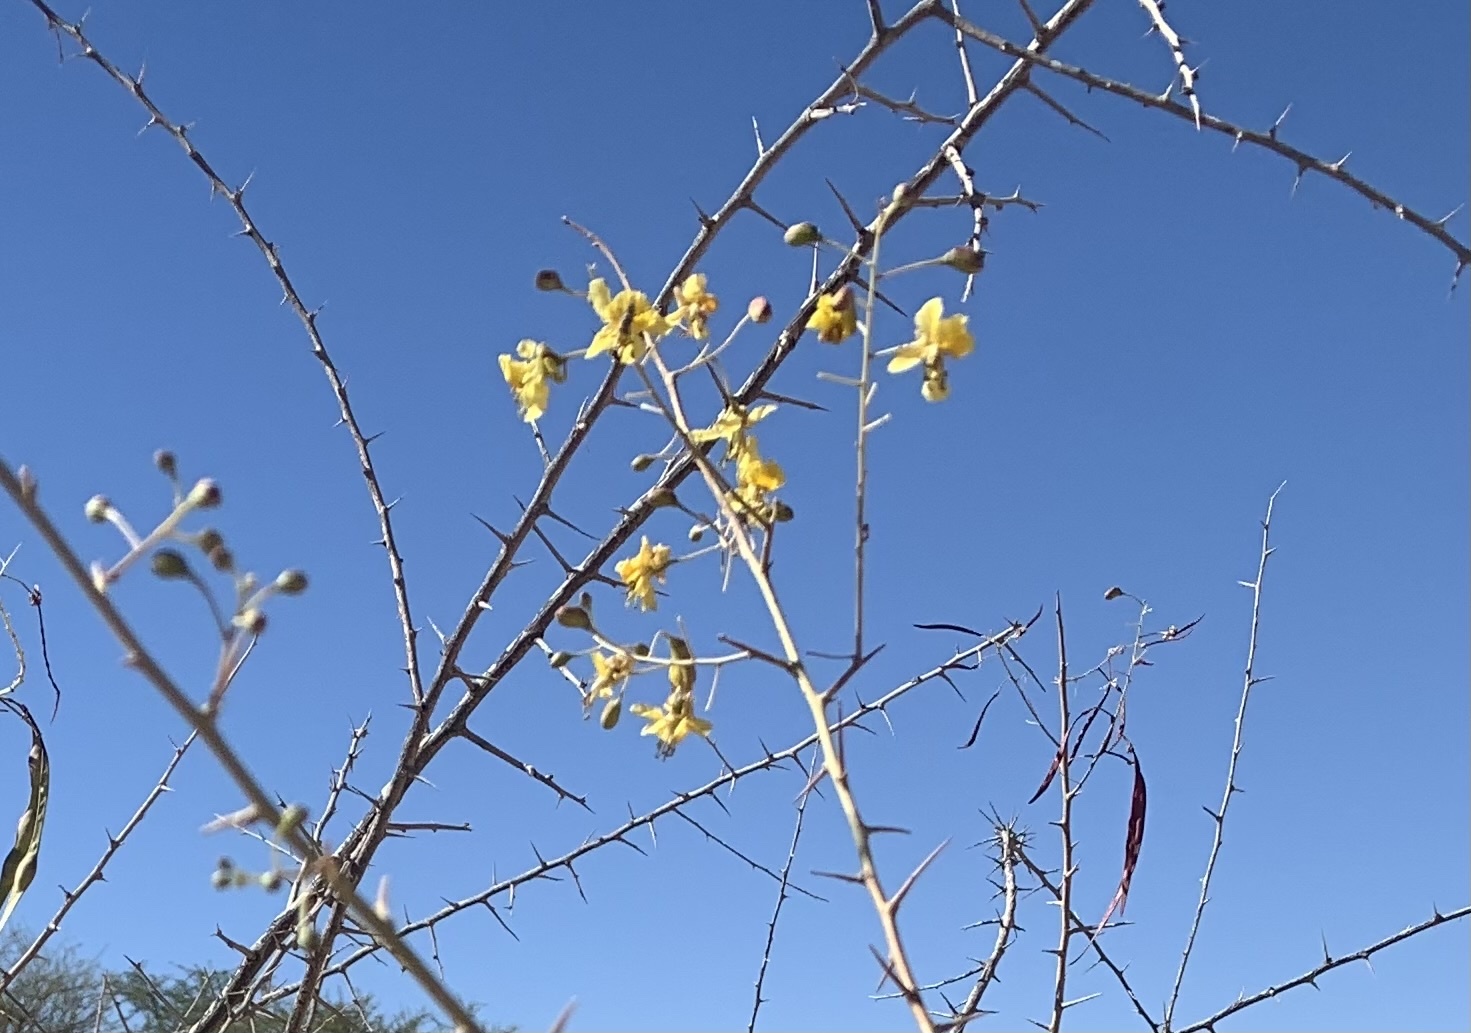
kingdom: Plantae
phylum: Tracheophyta
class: Magnoliopsida
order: Fabales
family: Fabaceae
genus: Parkinsonia
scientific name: Parkinsonia africana
